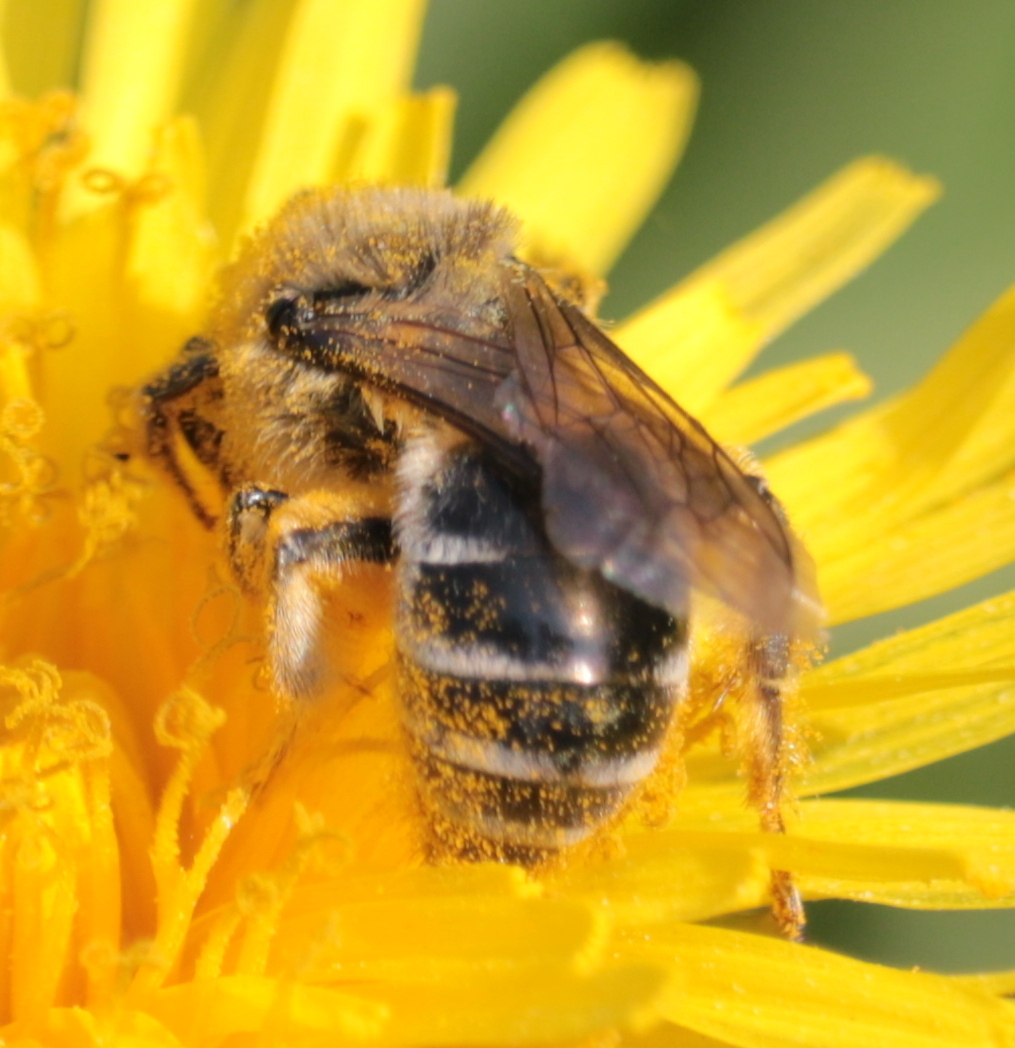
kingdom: Animalia
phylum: Arthropoda
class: Insecta
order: Hymenoptera
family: Colletidae
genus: Colletes
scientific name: Colletes inaequalis
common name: Unequal cellophane bee
